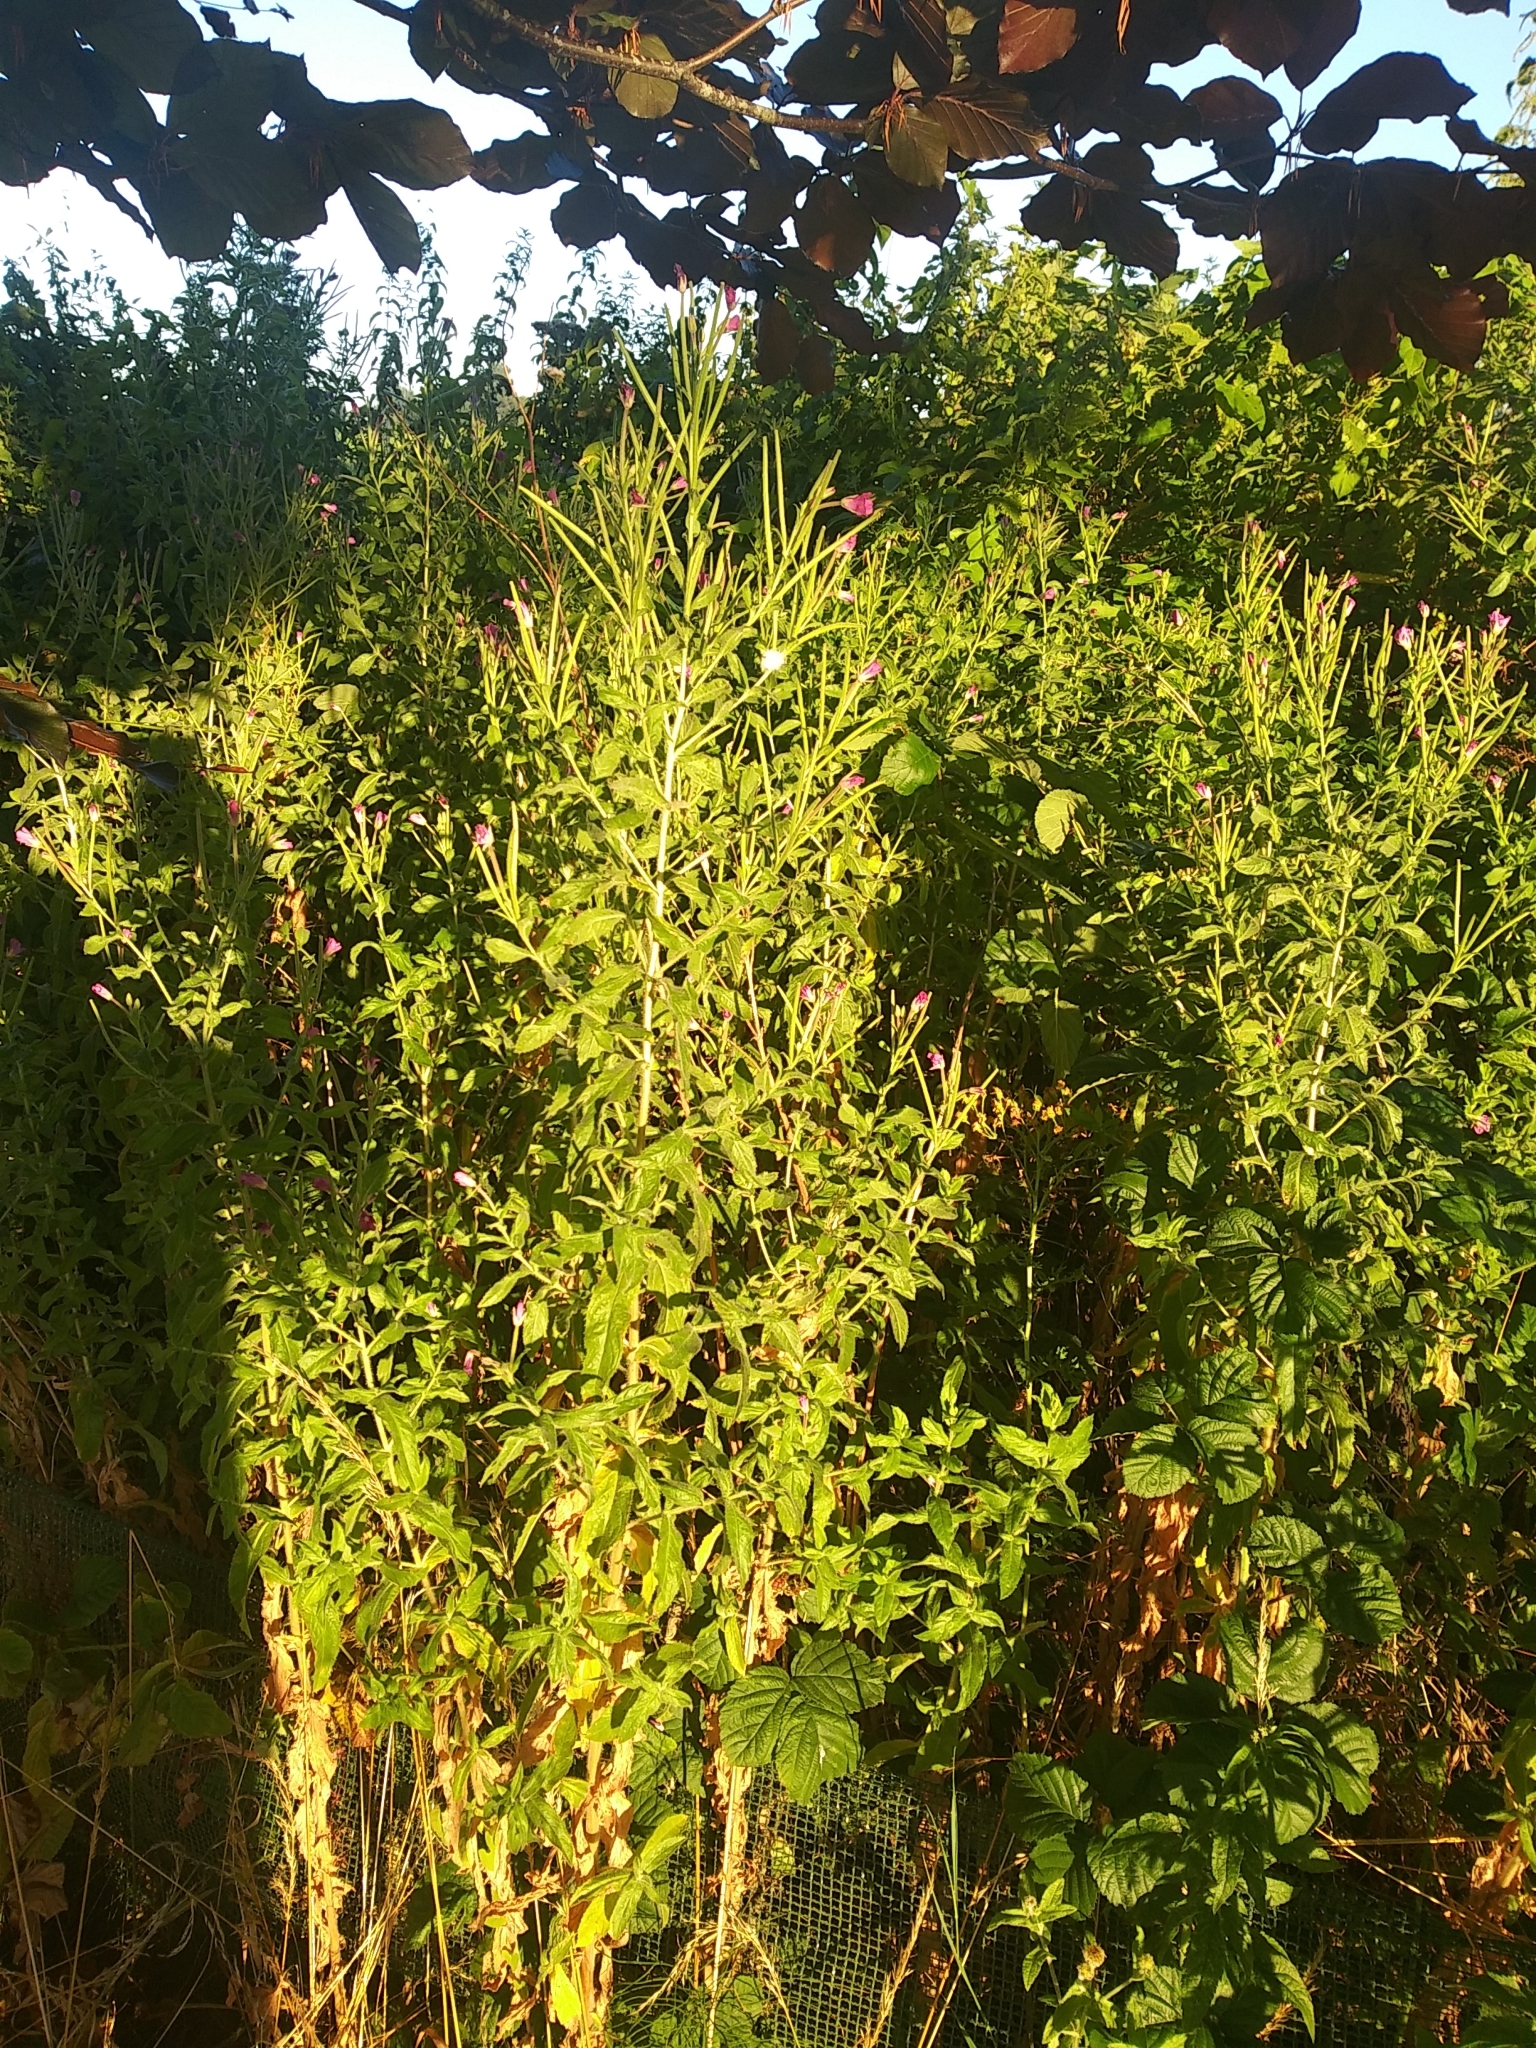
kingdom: Plantae
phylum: Tracheophyta
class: Magnoliopsida
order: Myrtales
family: Onagraceae
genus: Epilobium
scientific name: Epilobium hirsutum
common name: Great willowherb
